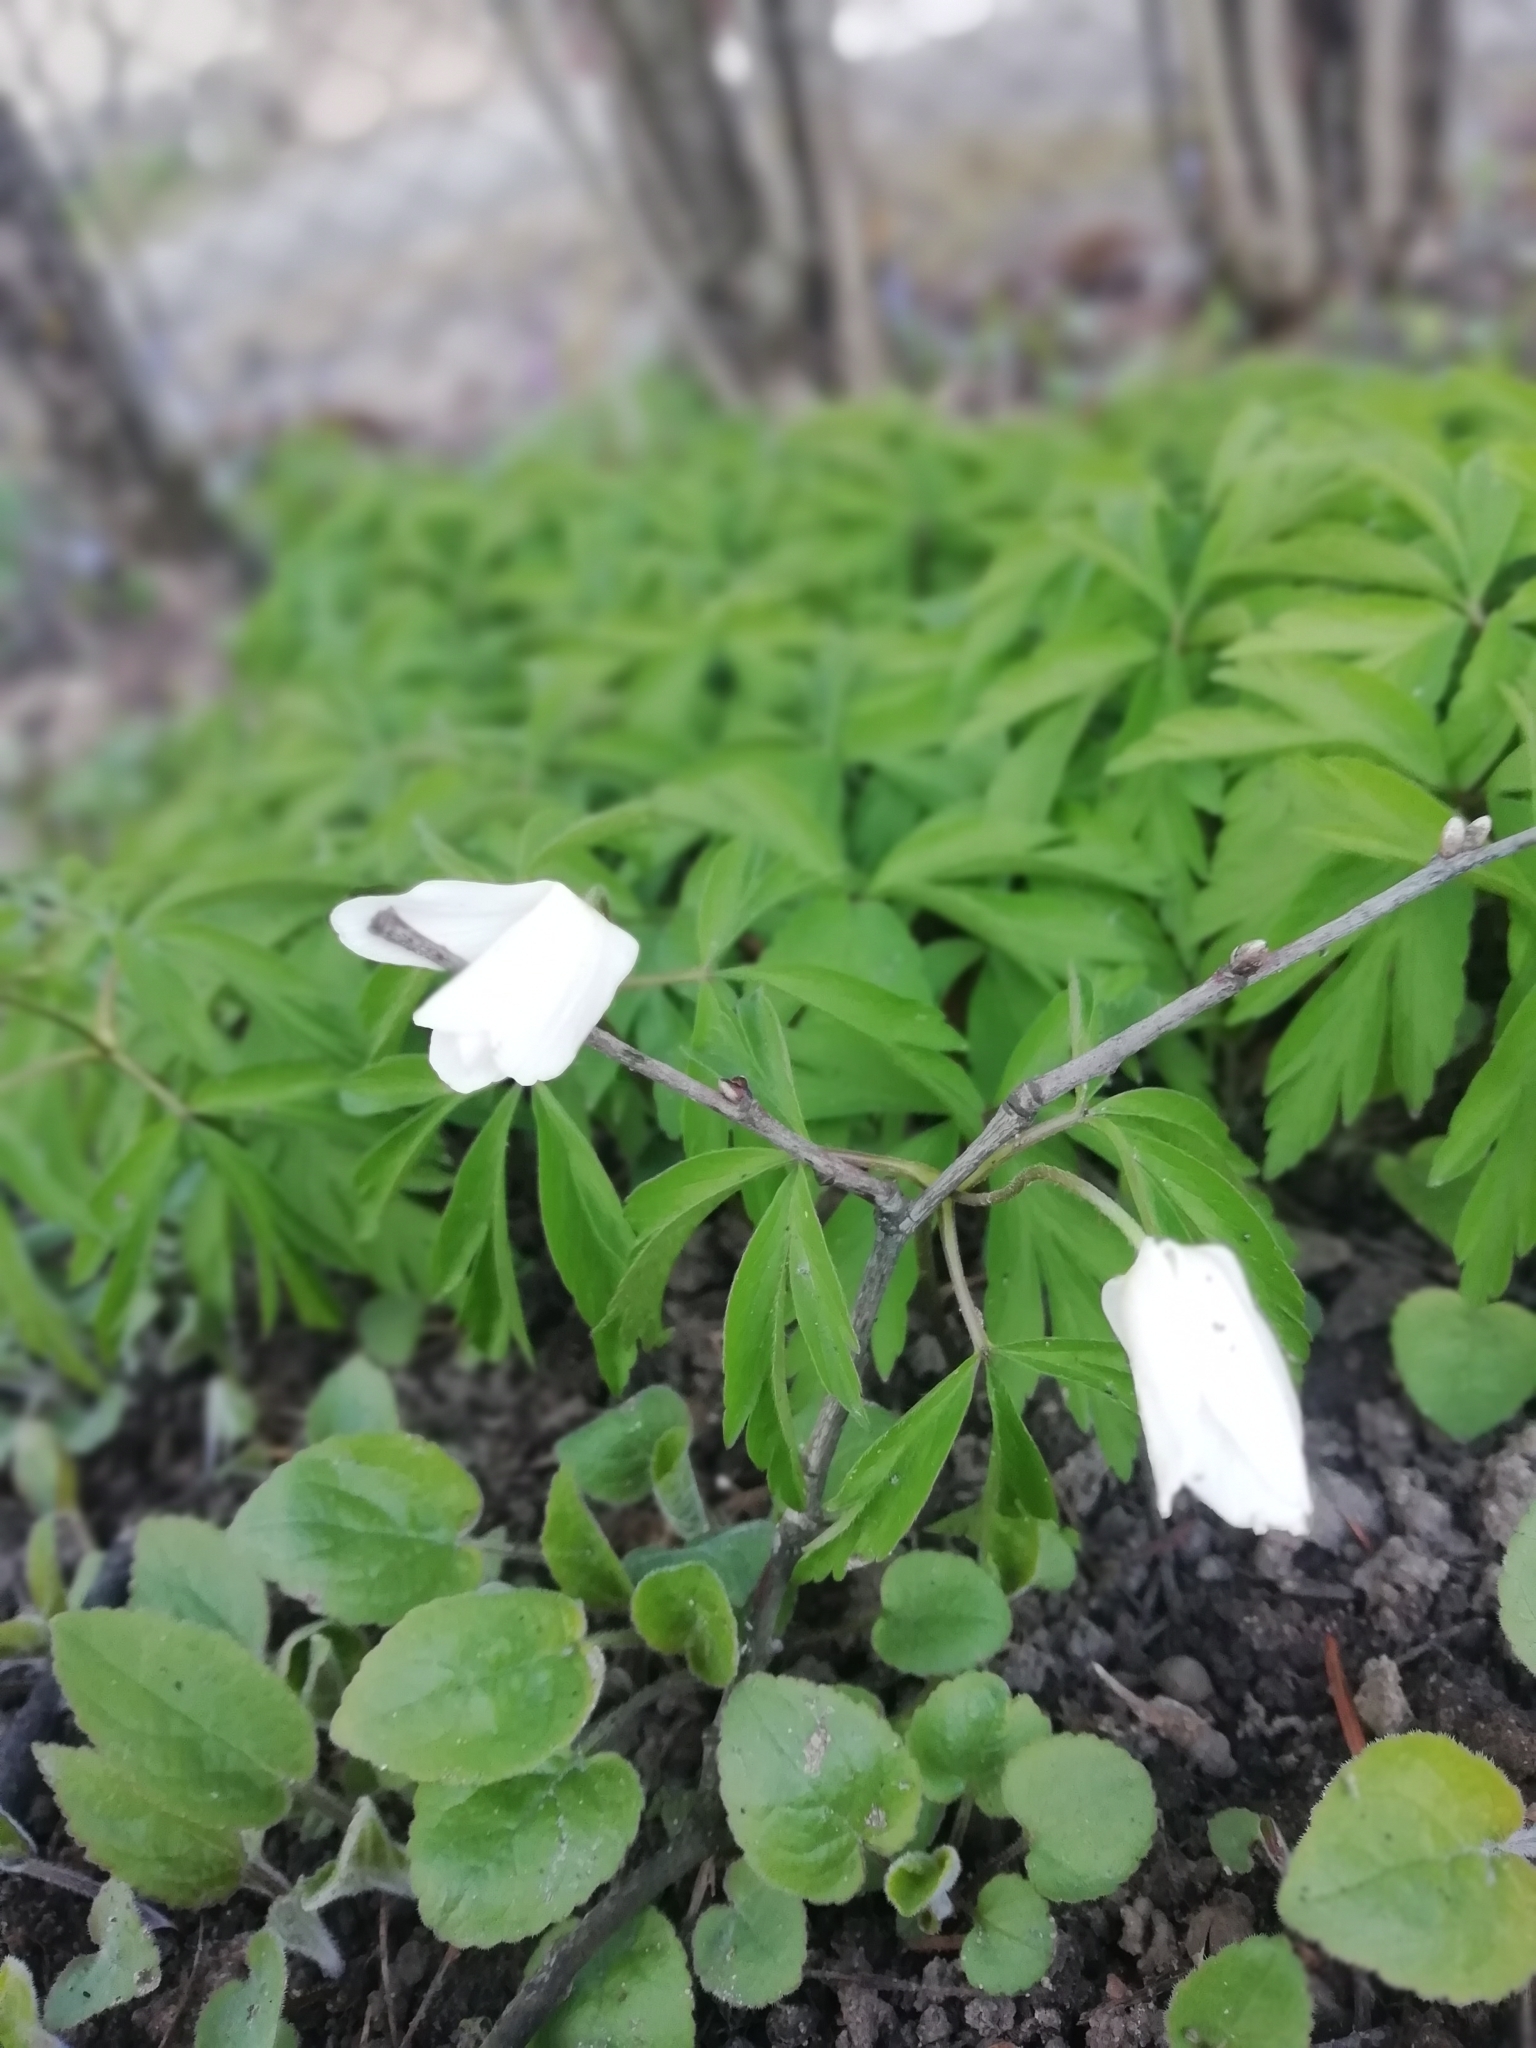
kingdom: Plantae
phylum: Tracheophyta
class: Magnoliopsida
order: Ranunculales
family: Ranunculaceae
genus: Anemone
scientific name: Anemone nemorosa
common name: Wood anemone
